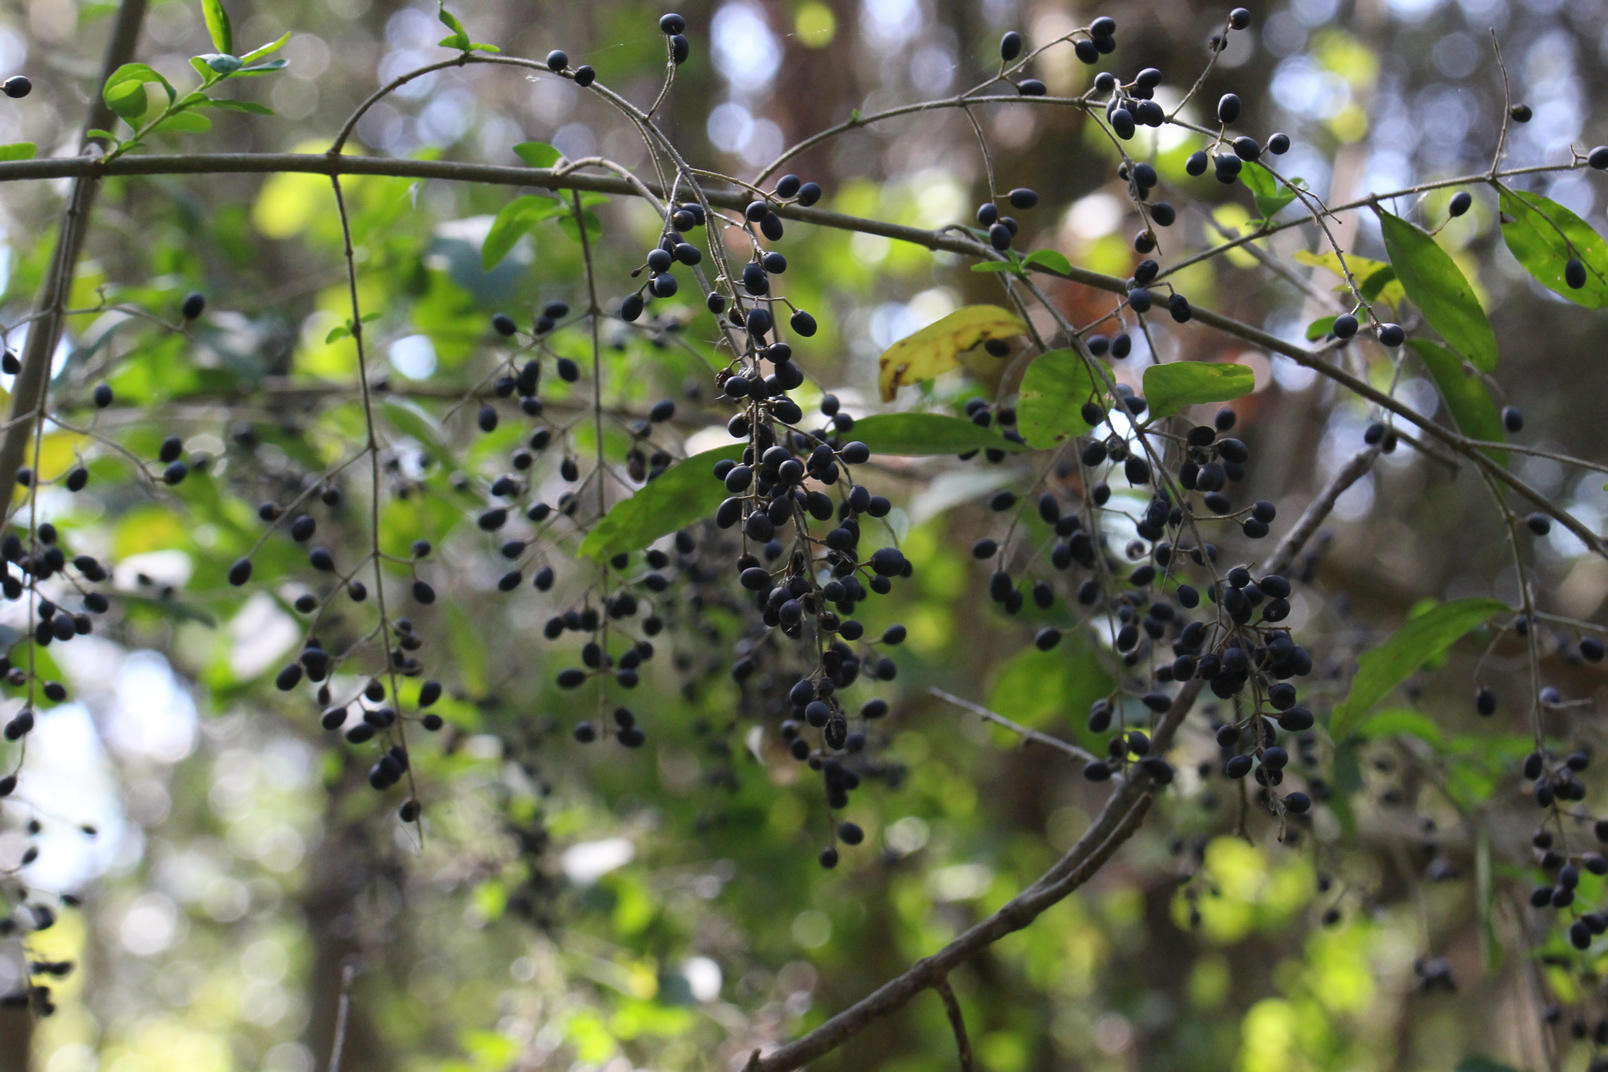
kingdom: Plantae
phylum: Tracheophyta
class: Magnoliopsida
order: Lamiales
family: Oleaceae
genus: Ligustrum
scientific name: Ligustrum sinense
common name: Chinese privet
